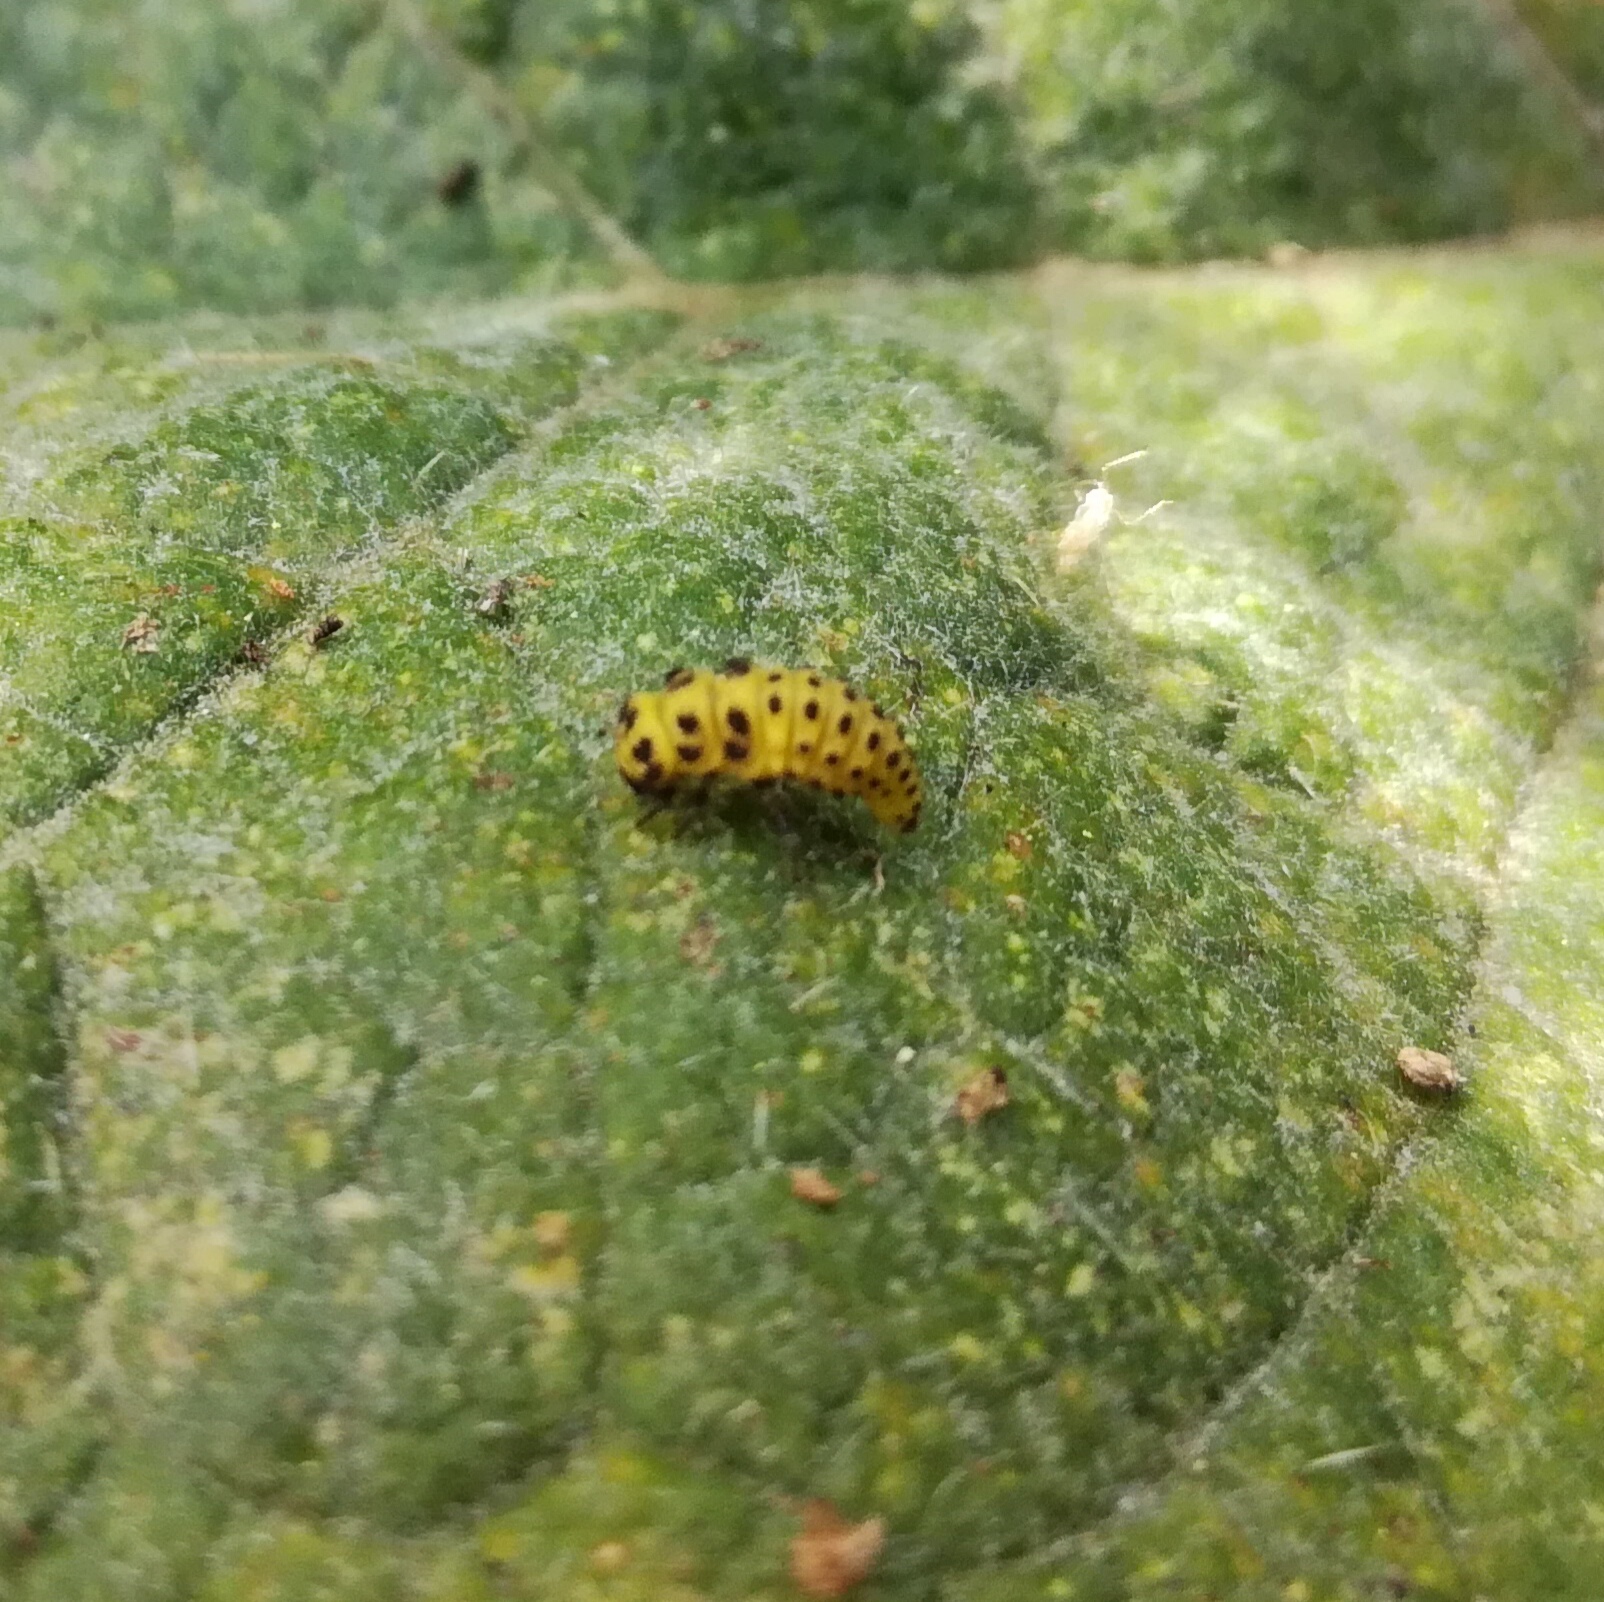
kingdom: Animalia
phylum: Arthropoda
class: Insecta
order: Coleoptera
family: Coccinellidae
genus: Psyllobora
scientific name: Psyllobora vigintiduopunctata
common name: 22-spot ladybird
